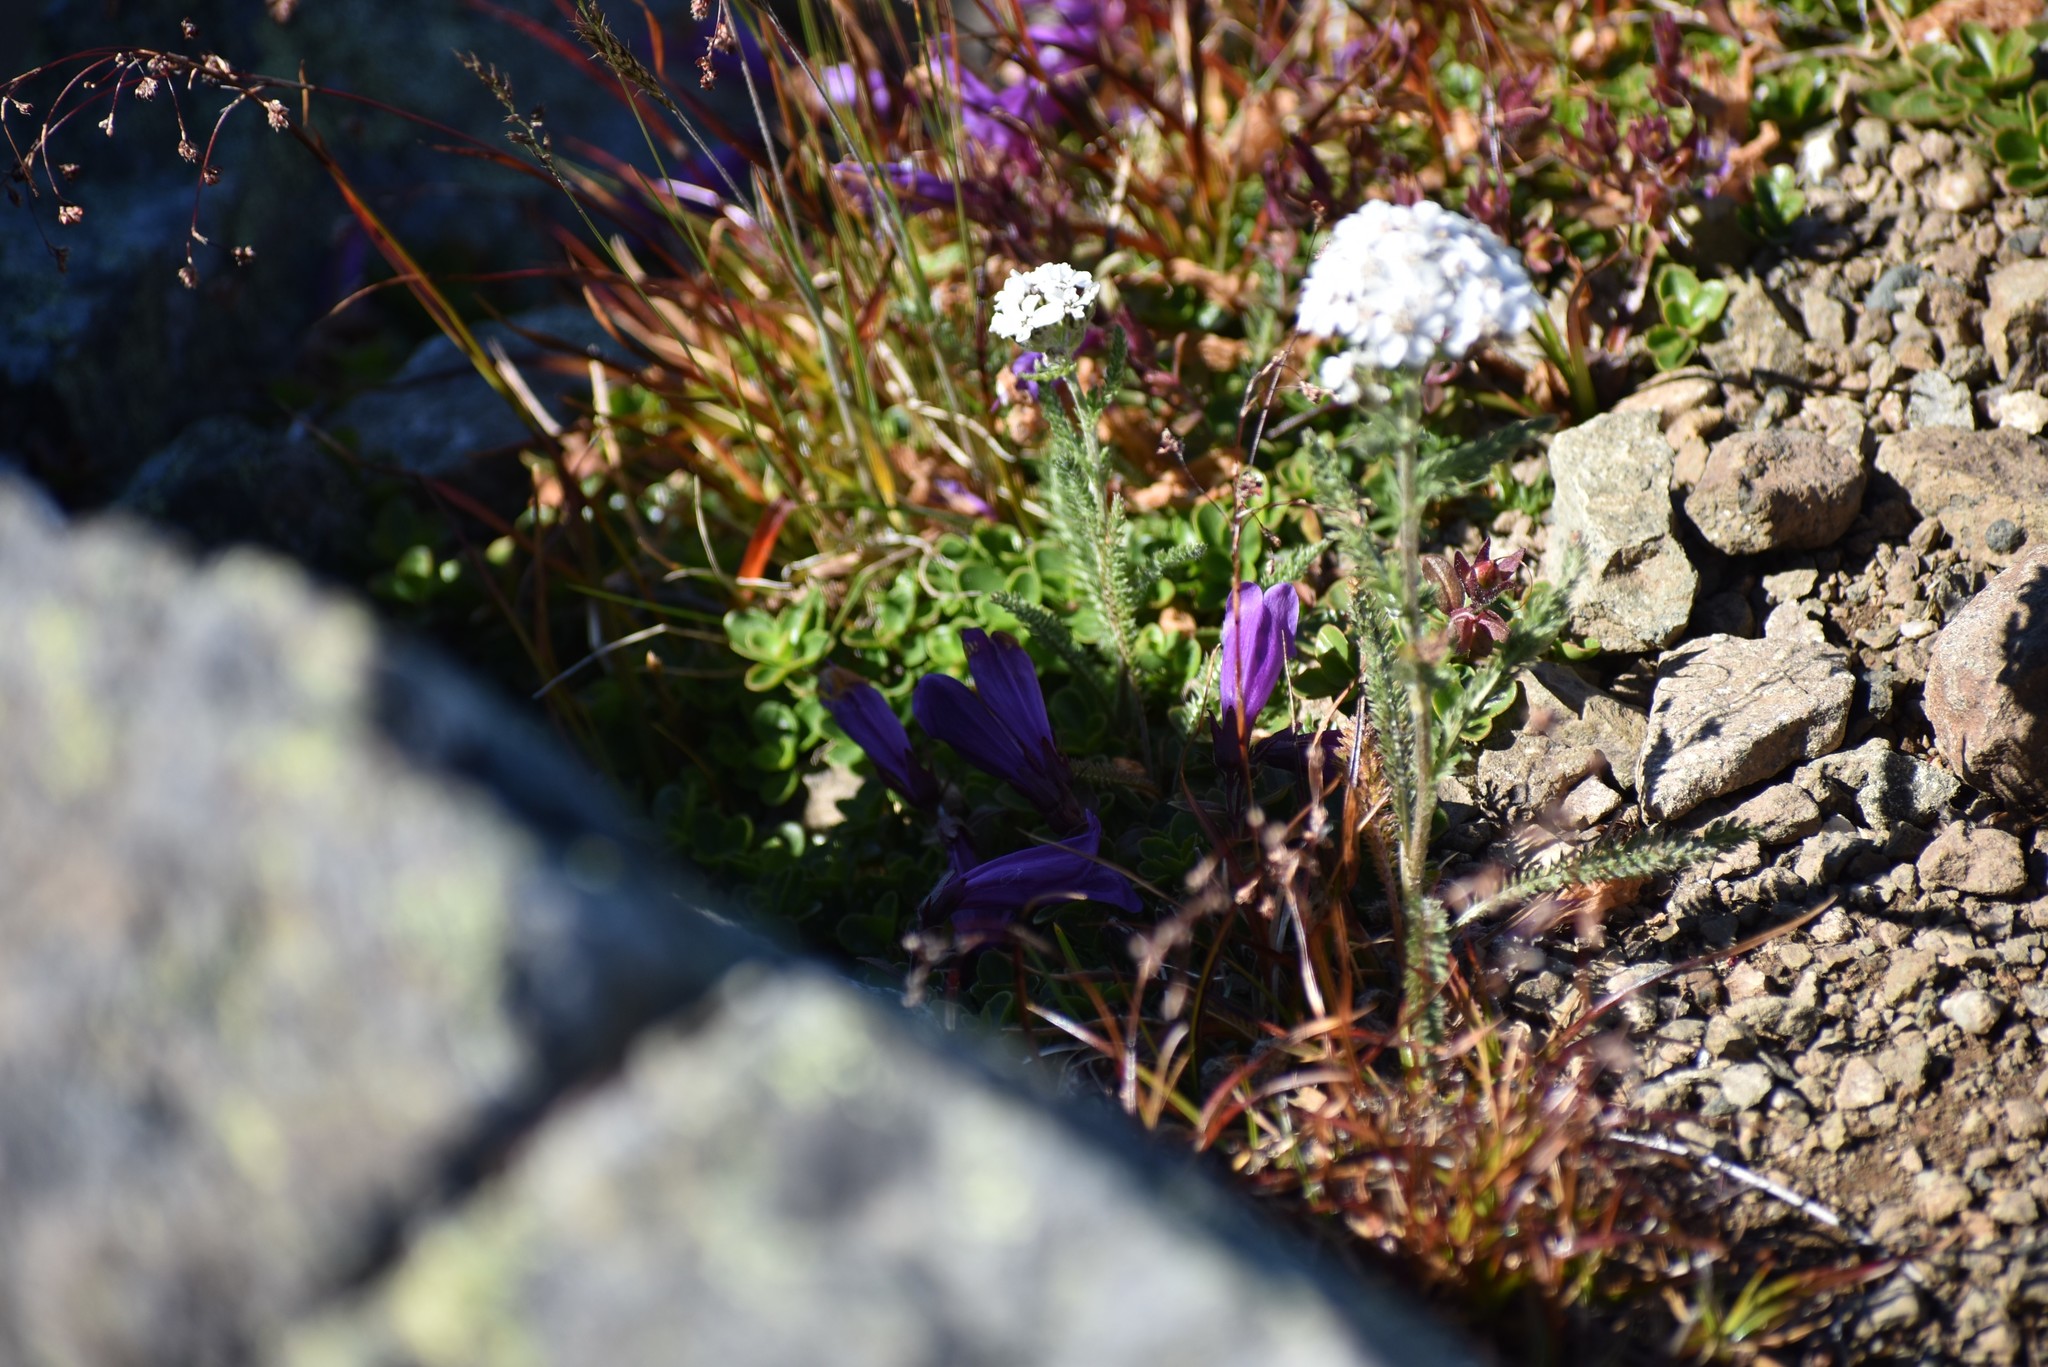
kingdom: Plantae
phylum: Tracheophyta
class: Magnoliopsida
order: Lamiales
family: Plantaginaceae
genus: Penstemon
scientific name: Penstemon davidsonii
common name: Davidson's penstemon
